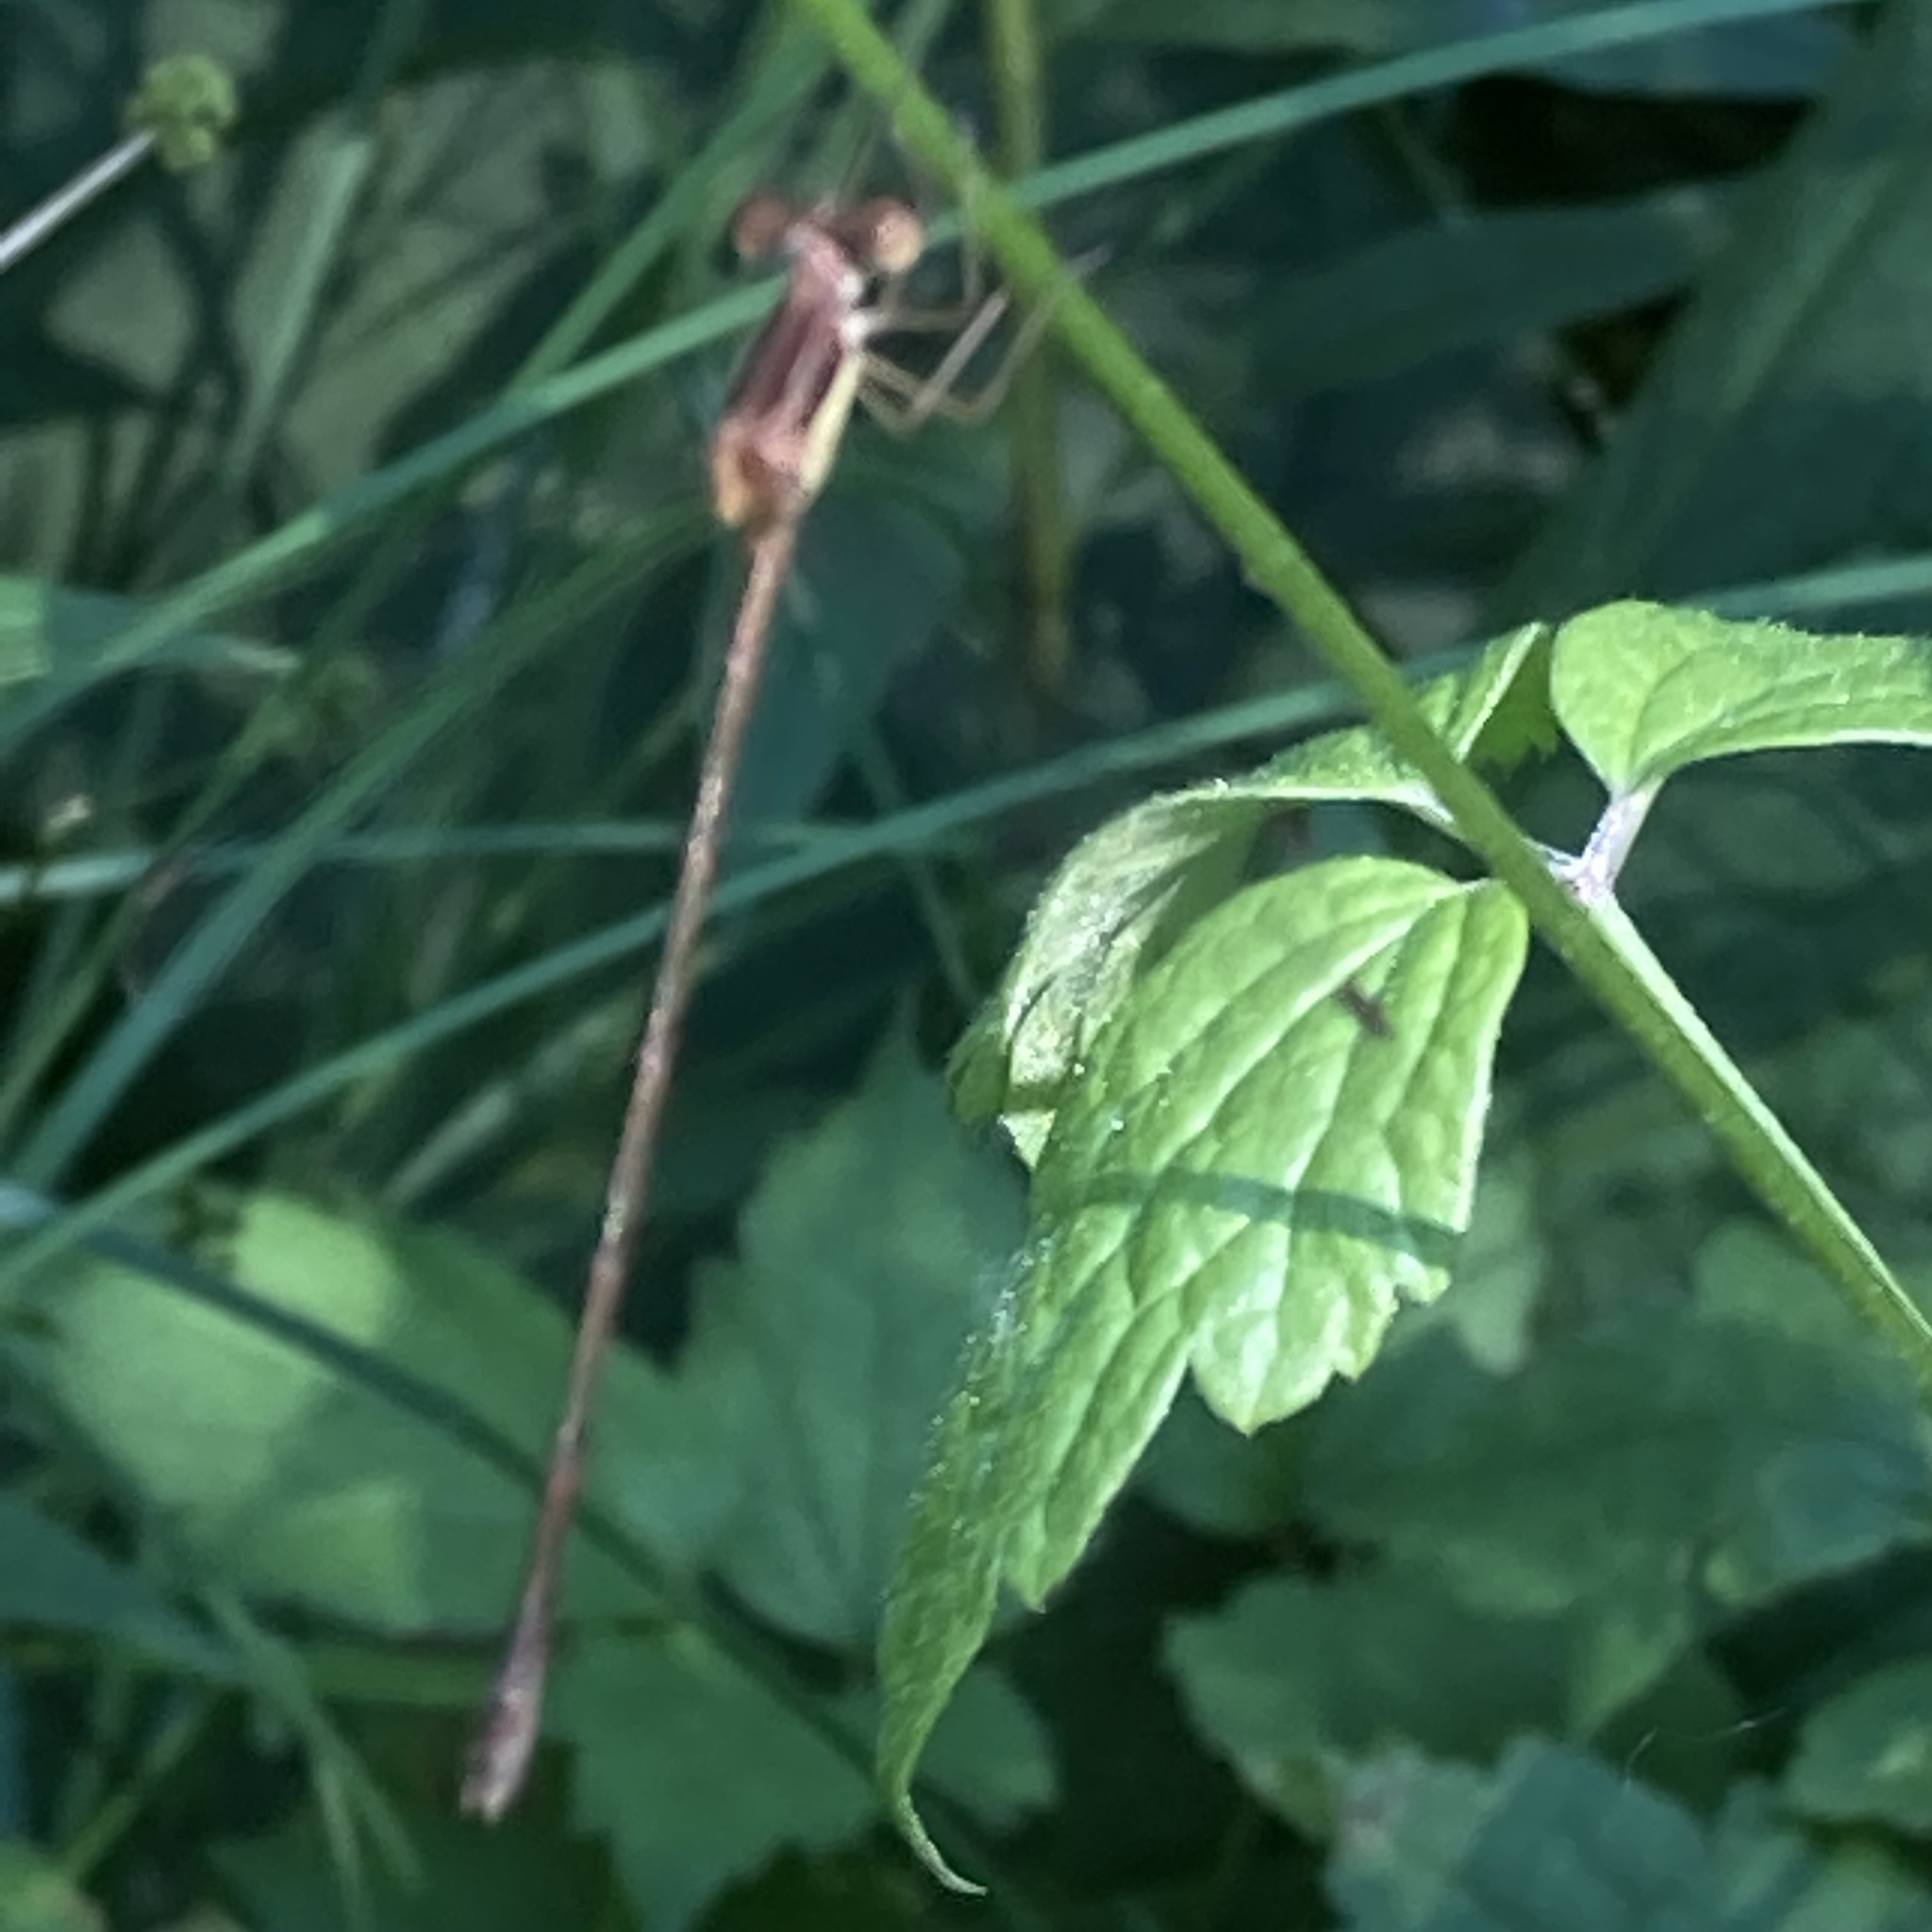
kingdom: Animalia
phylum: Arthropoda
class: Insecta
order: Odonata
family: Lestidae
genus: Lestes
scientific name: Lestes rectangularis
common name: Slender spreadwing
